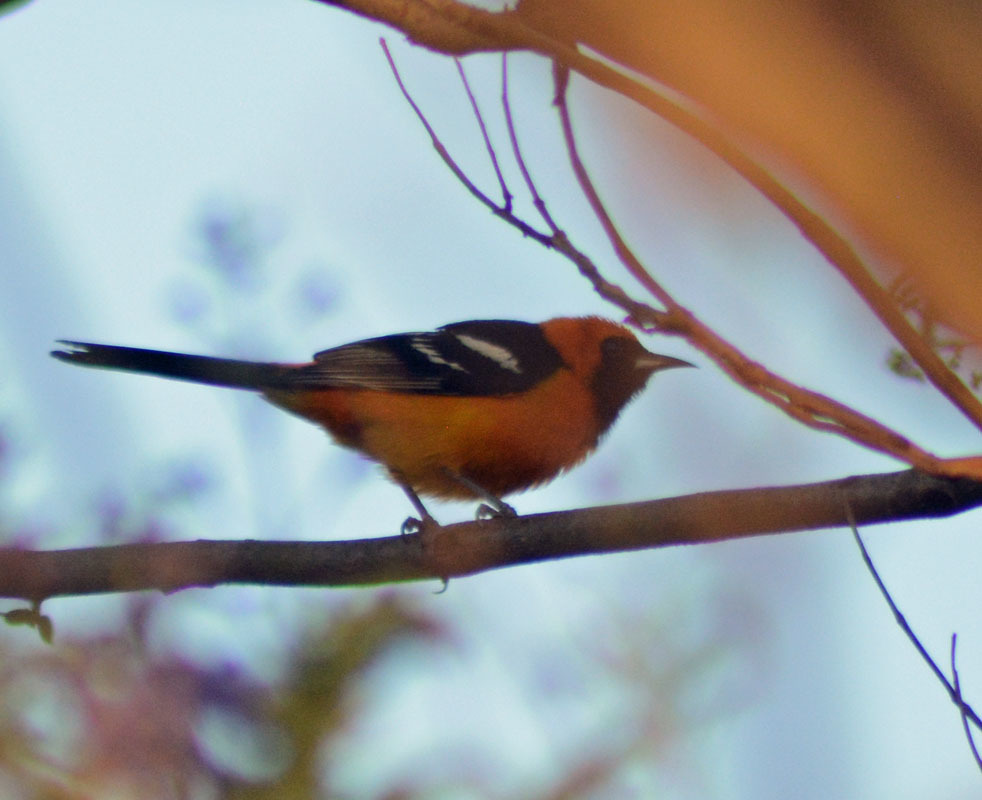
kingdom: Animalia
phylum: Chordata
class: Aves
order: Passeriformes
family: Icteridae
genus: Icterus
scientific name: Icterus cucullatus
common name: Hooded oriole
